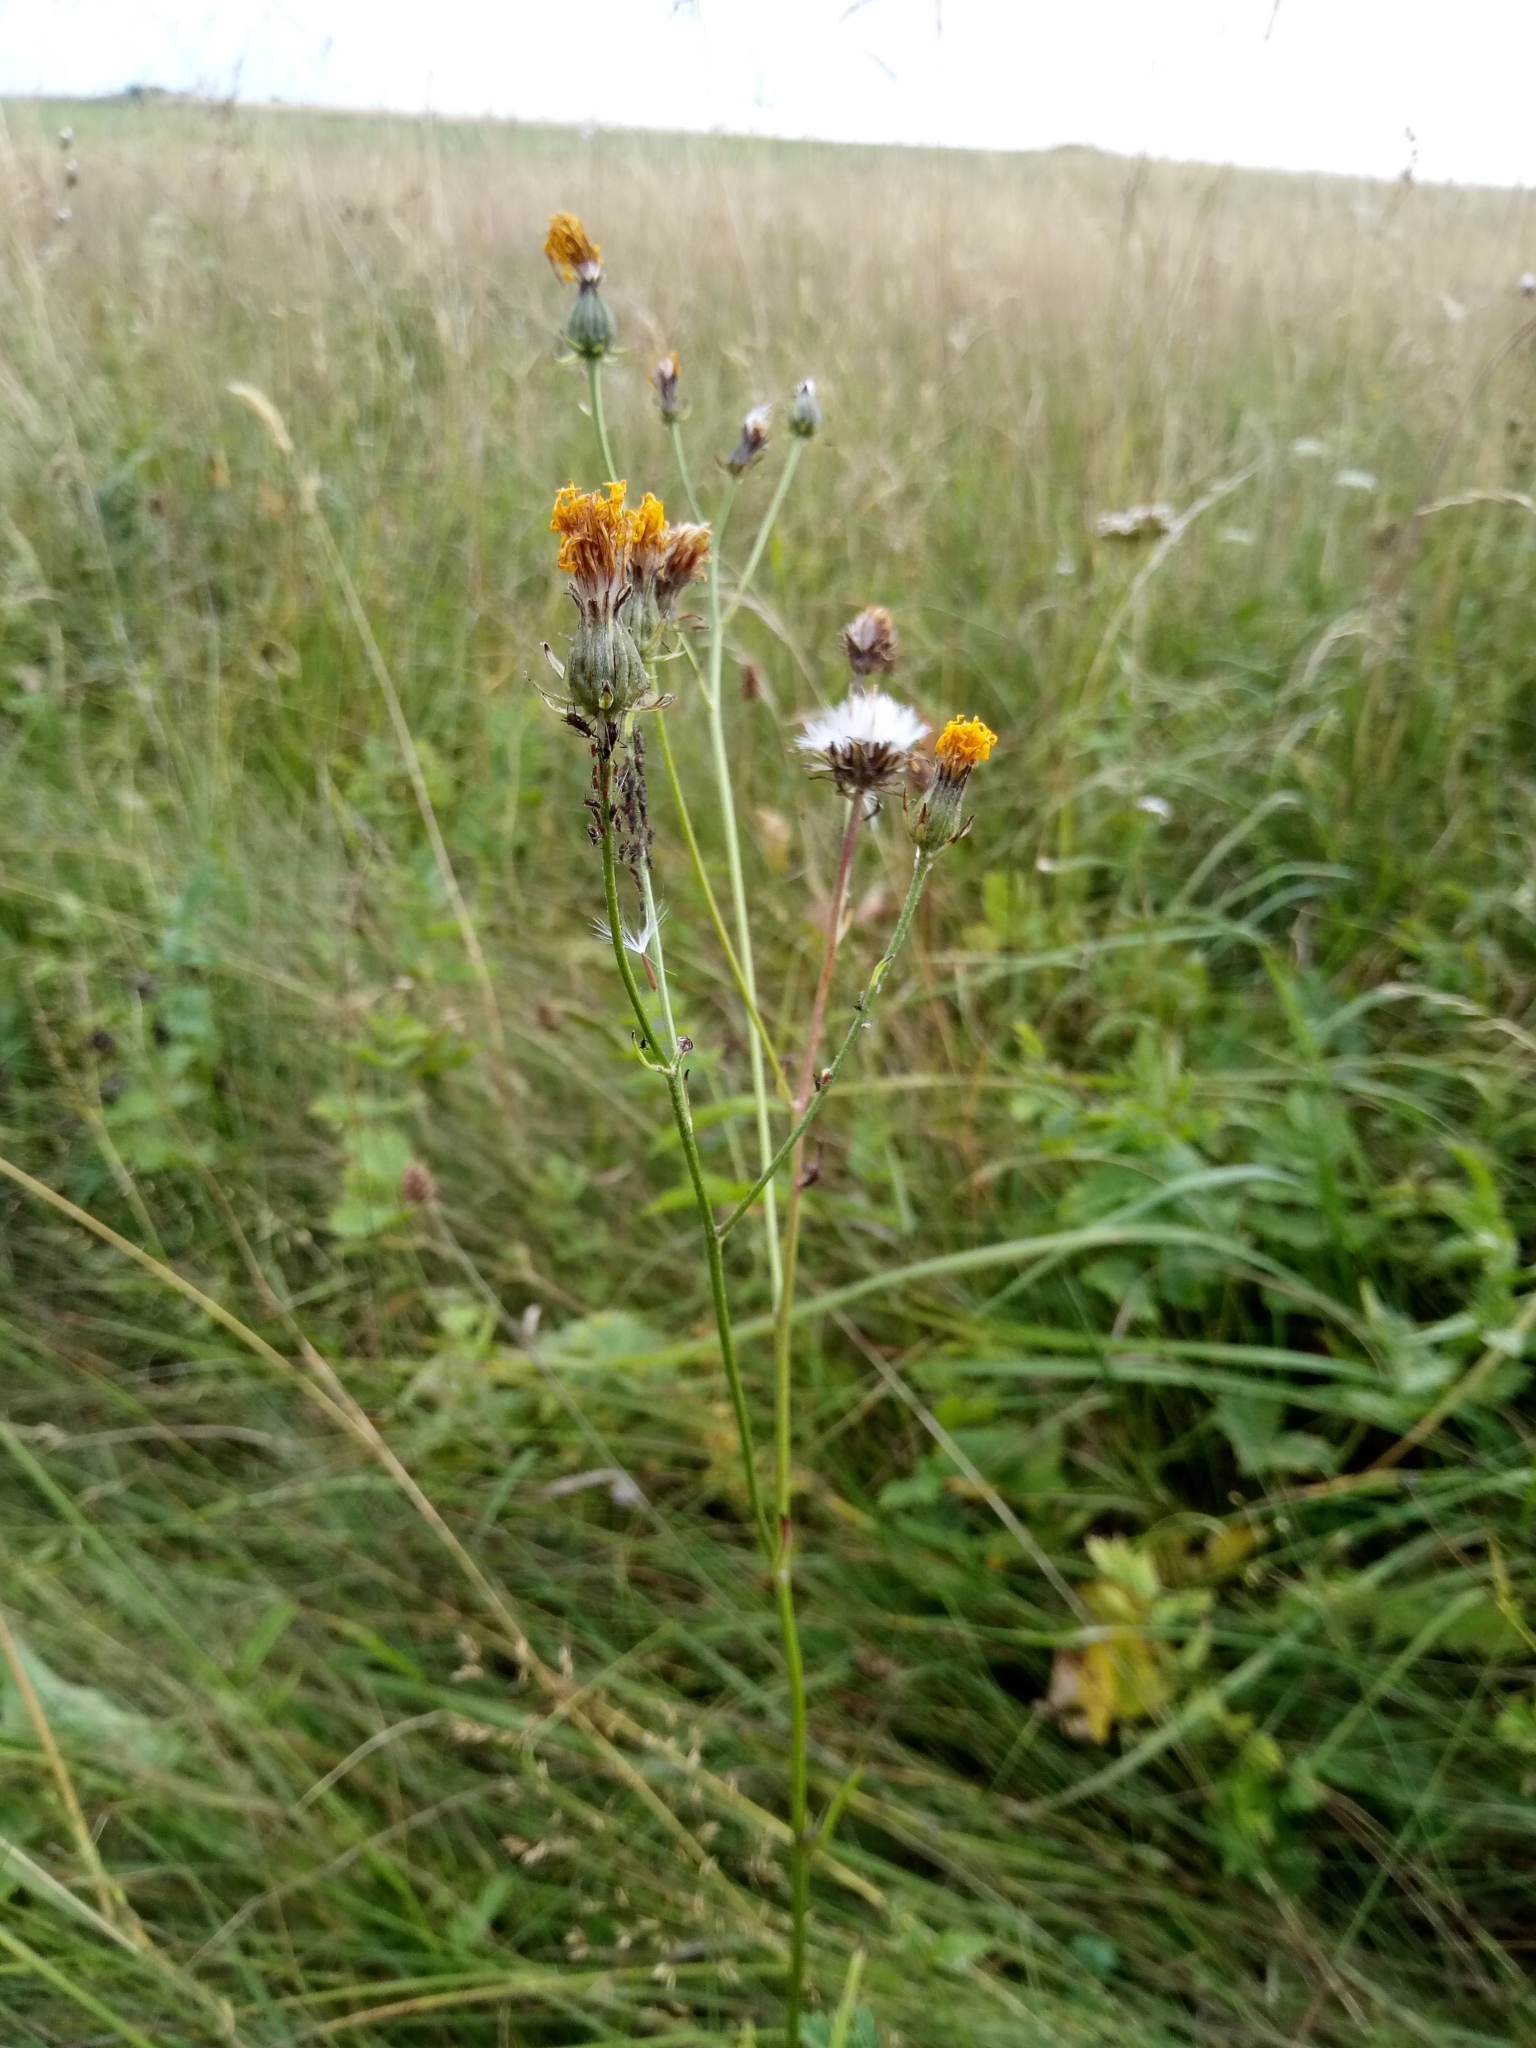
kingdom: Plantae
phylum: Tracheophyta
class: Magnoliopsida
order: Asterales
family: Asteraceae
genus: Crepis
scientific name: Crepis biennis
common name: Rough hawk's-beard
